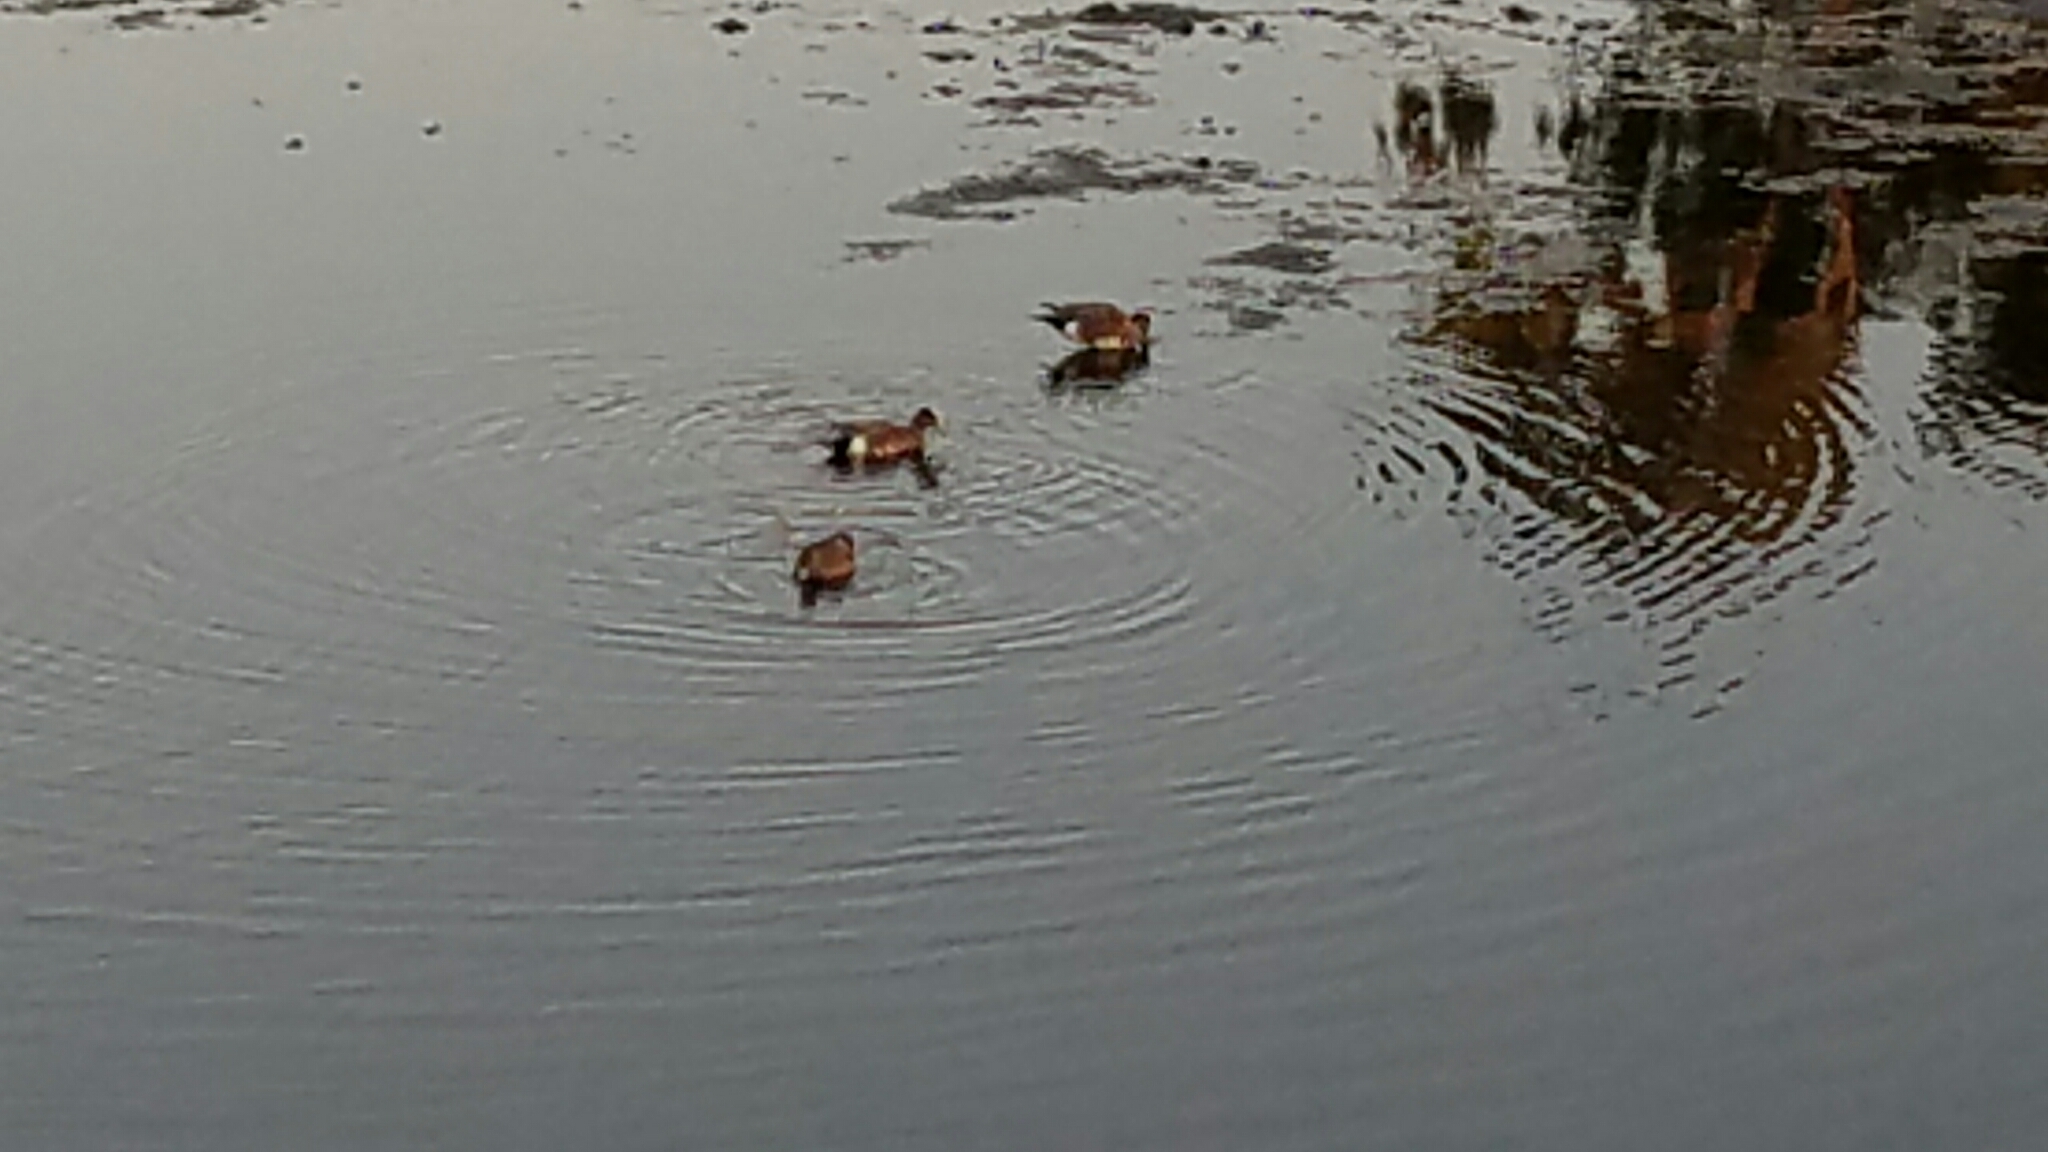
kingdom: Animalia
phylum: Chordata
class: Aves
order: Anseriformes
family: Anatidae
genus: Mareca
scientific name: Mareca americana
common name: American wigeon
